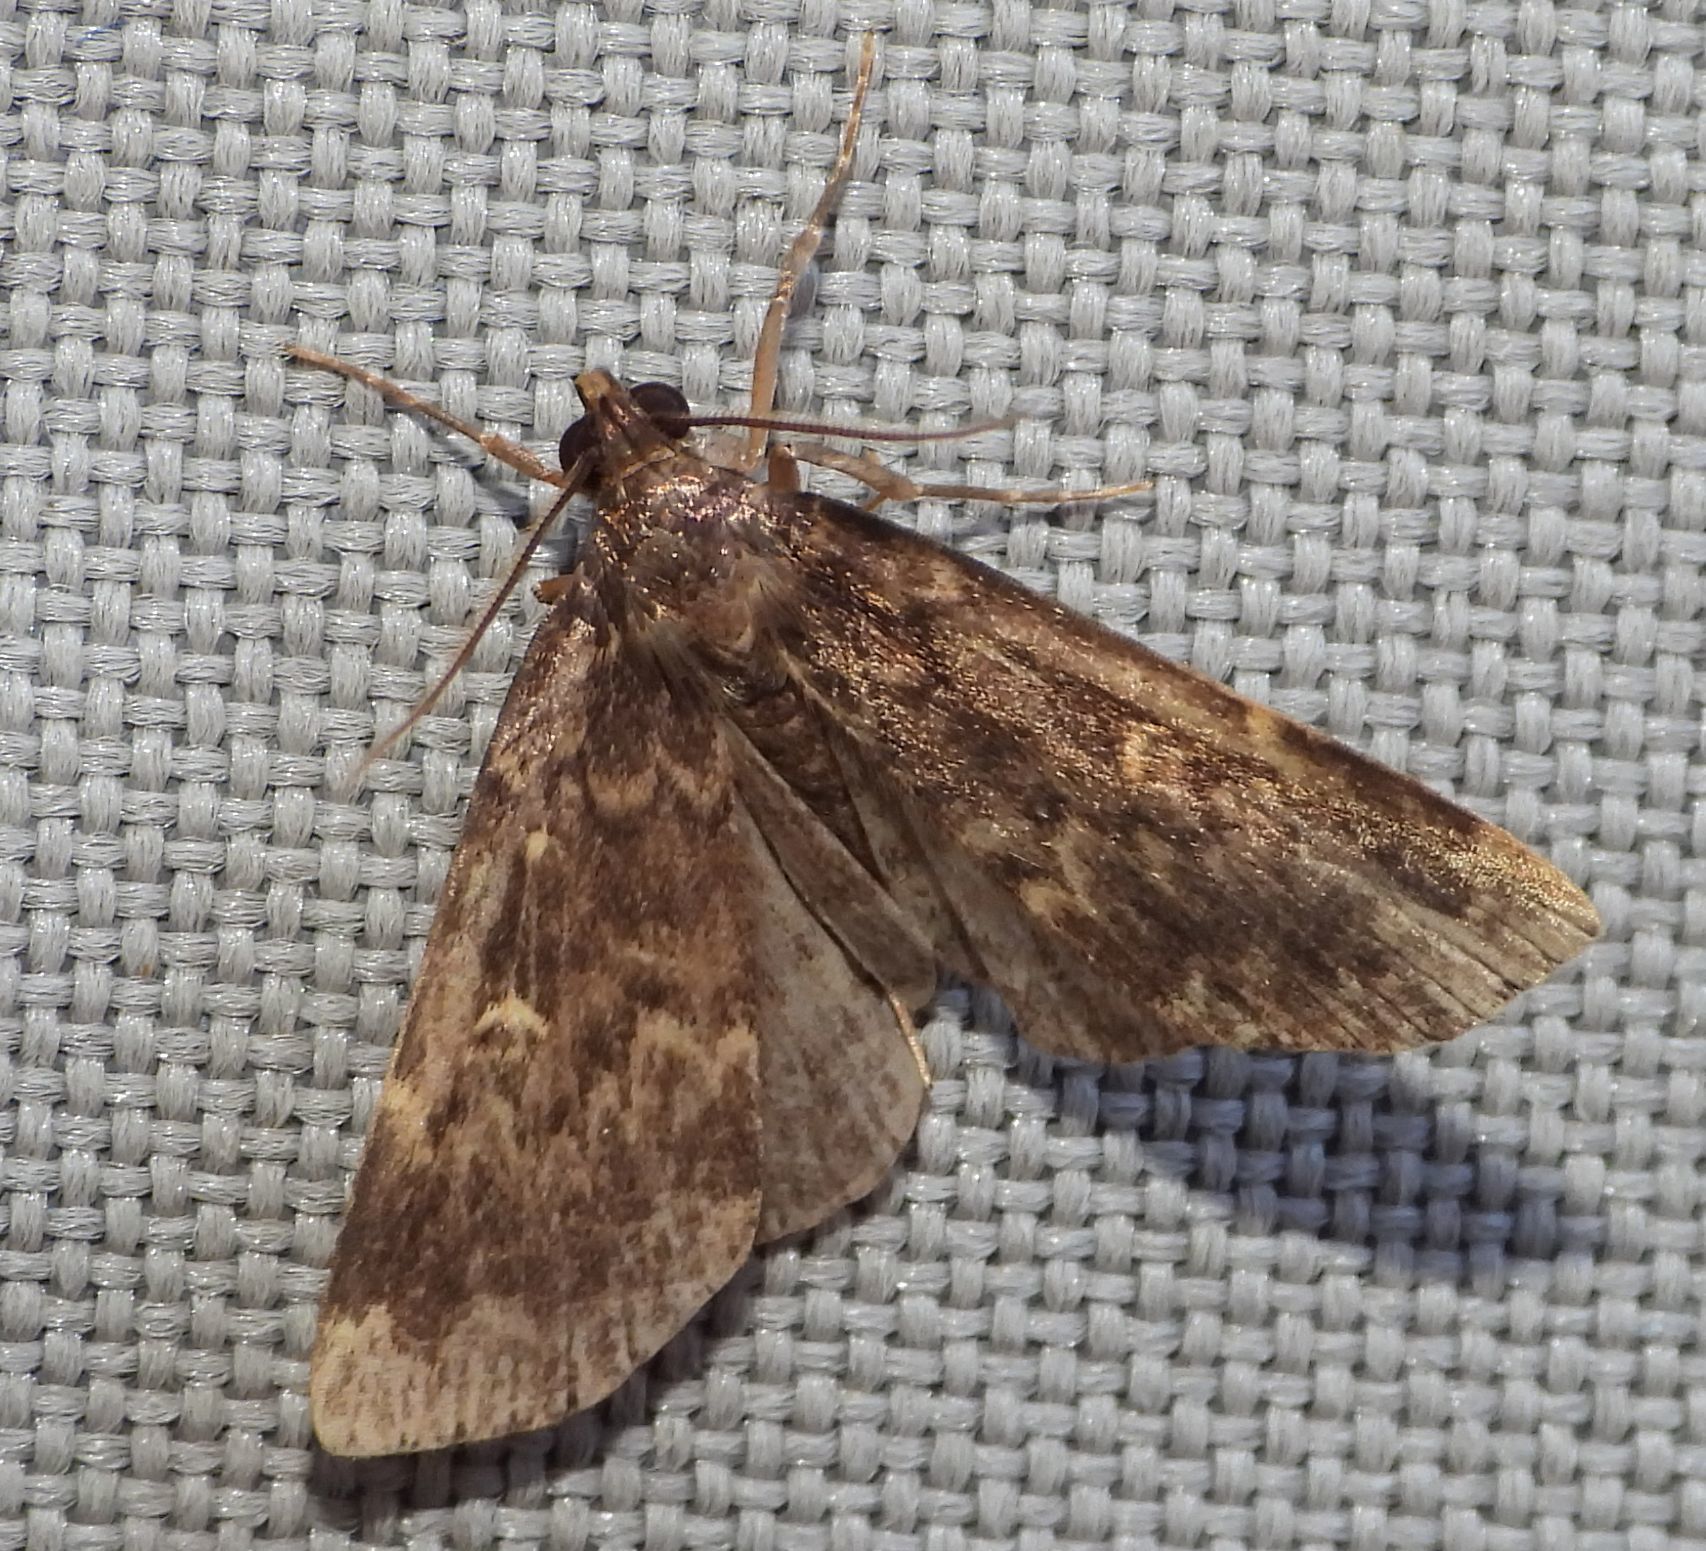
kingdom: Animalia
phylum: Arthropoda
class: Insecta
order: Lepidoptera
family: Erebidae
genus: Idia
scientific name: Idia lubricalis
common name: Twin-striped tabby
